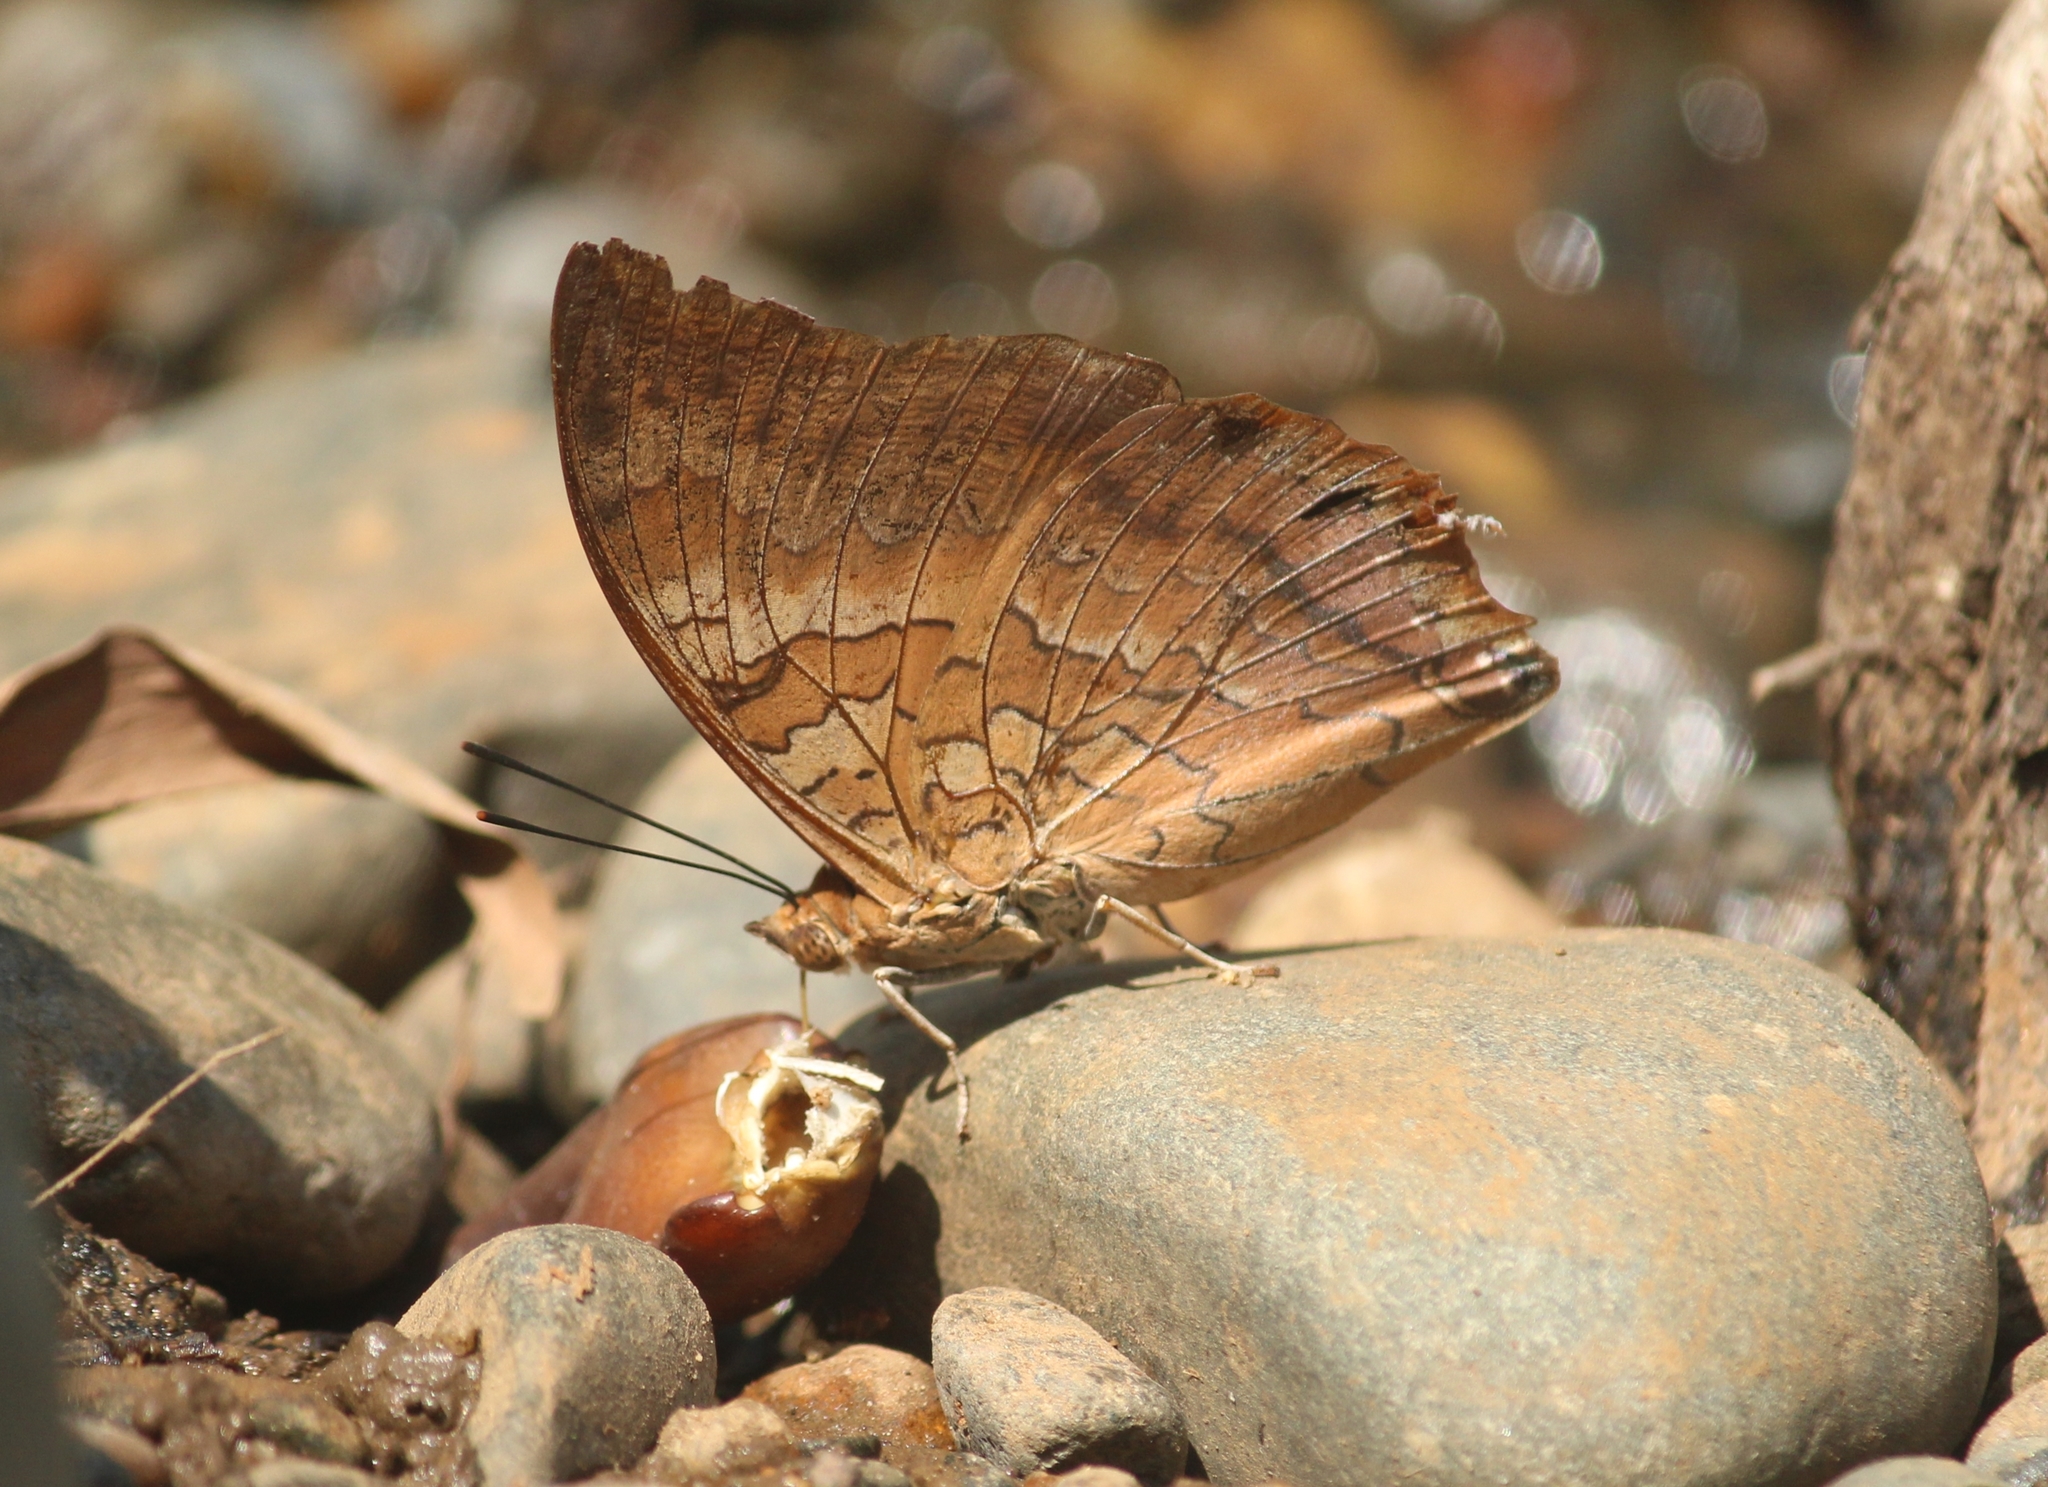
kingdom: Animalia
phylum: Arthropoda
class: Insecta
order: Lepidoptera
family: Nymphalidae
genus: Charaxes
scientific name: Charaxes psaphon
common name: Plain tawny rajah
